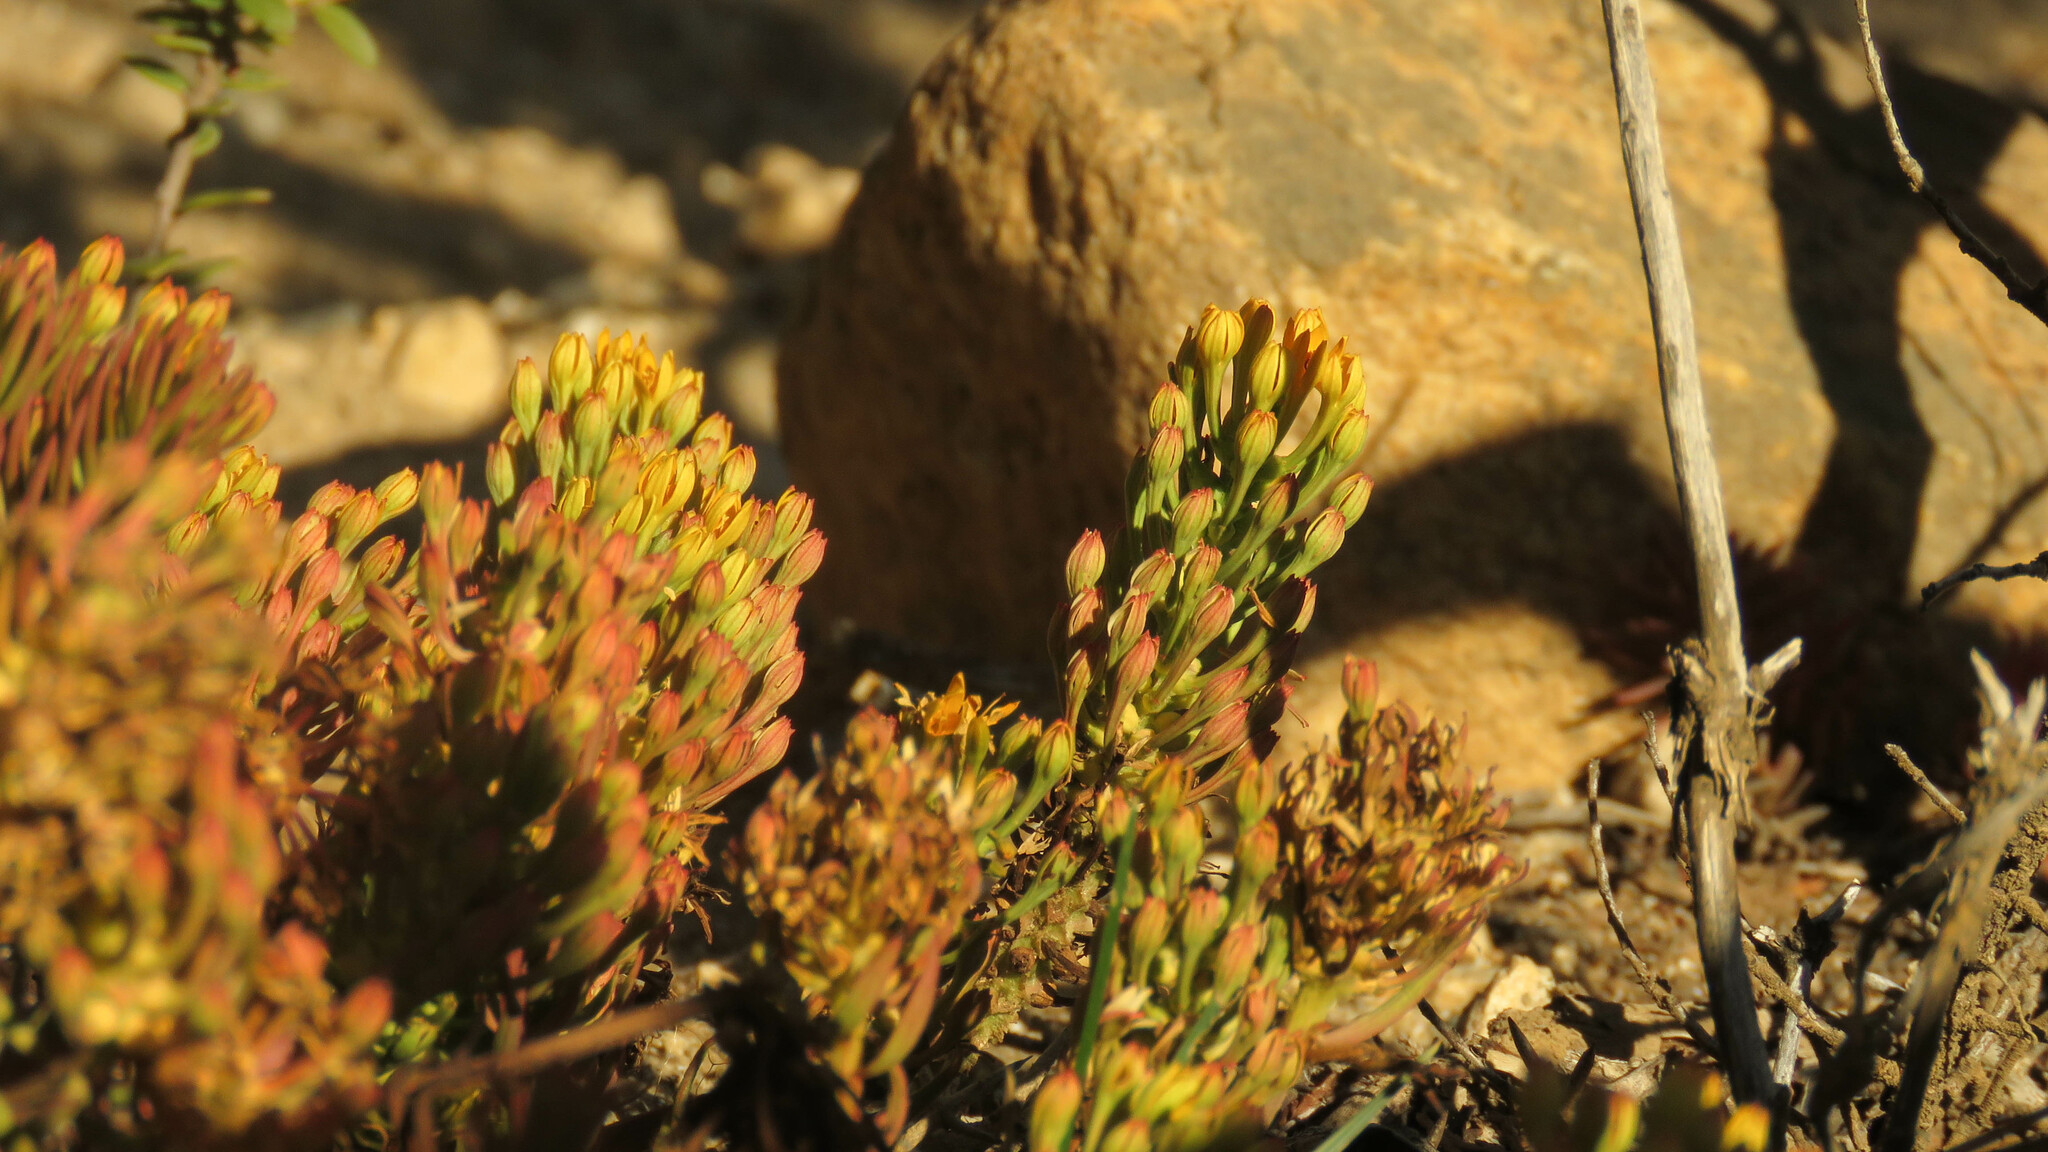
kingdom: Plantae
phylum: Tracheophyta
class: Magnoliopsida
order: Santalales
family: Schoepfiaceae
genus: Quinchamalium
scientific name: Quinchamalium chilense
